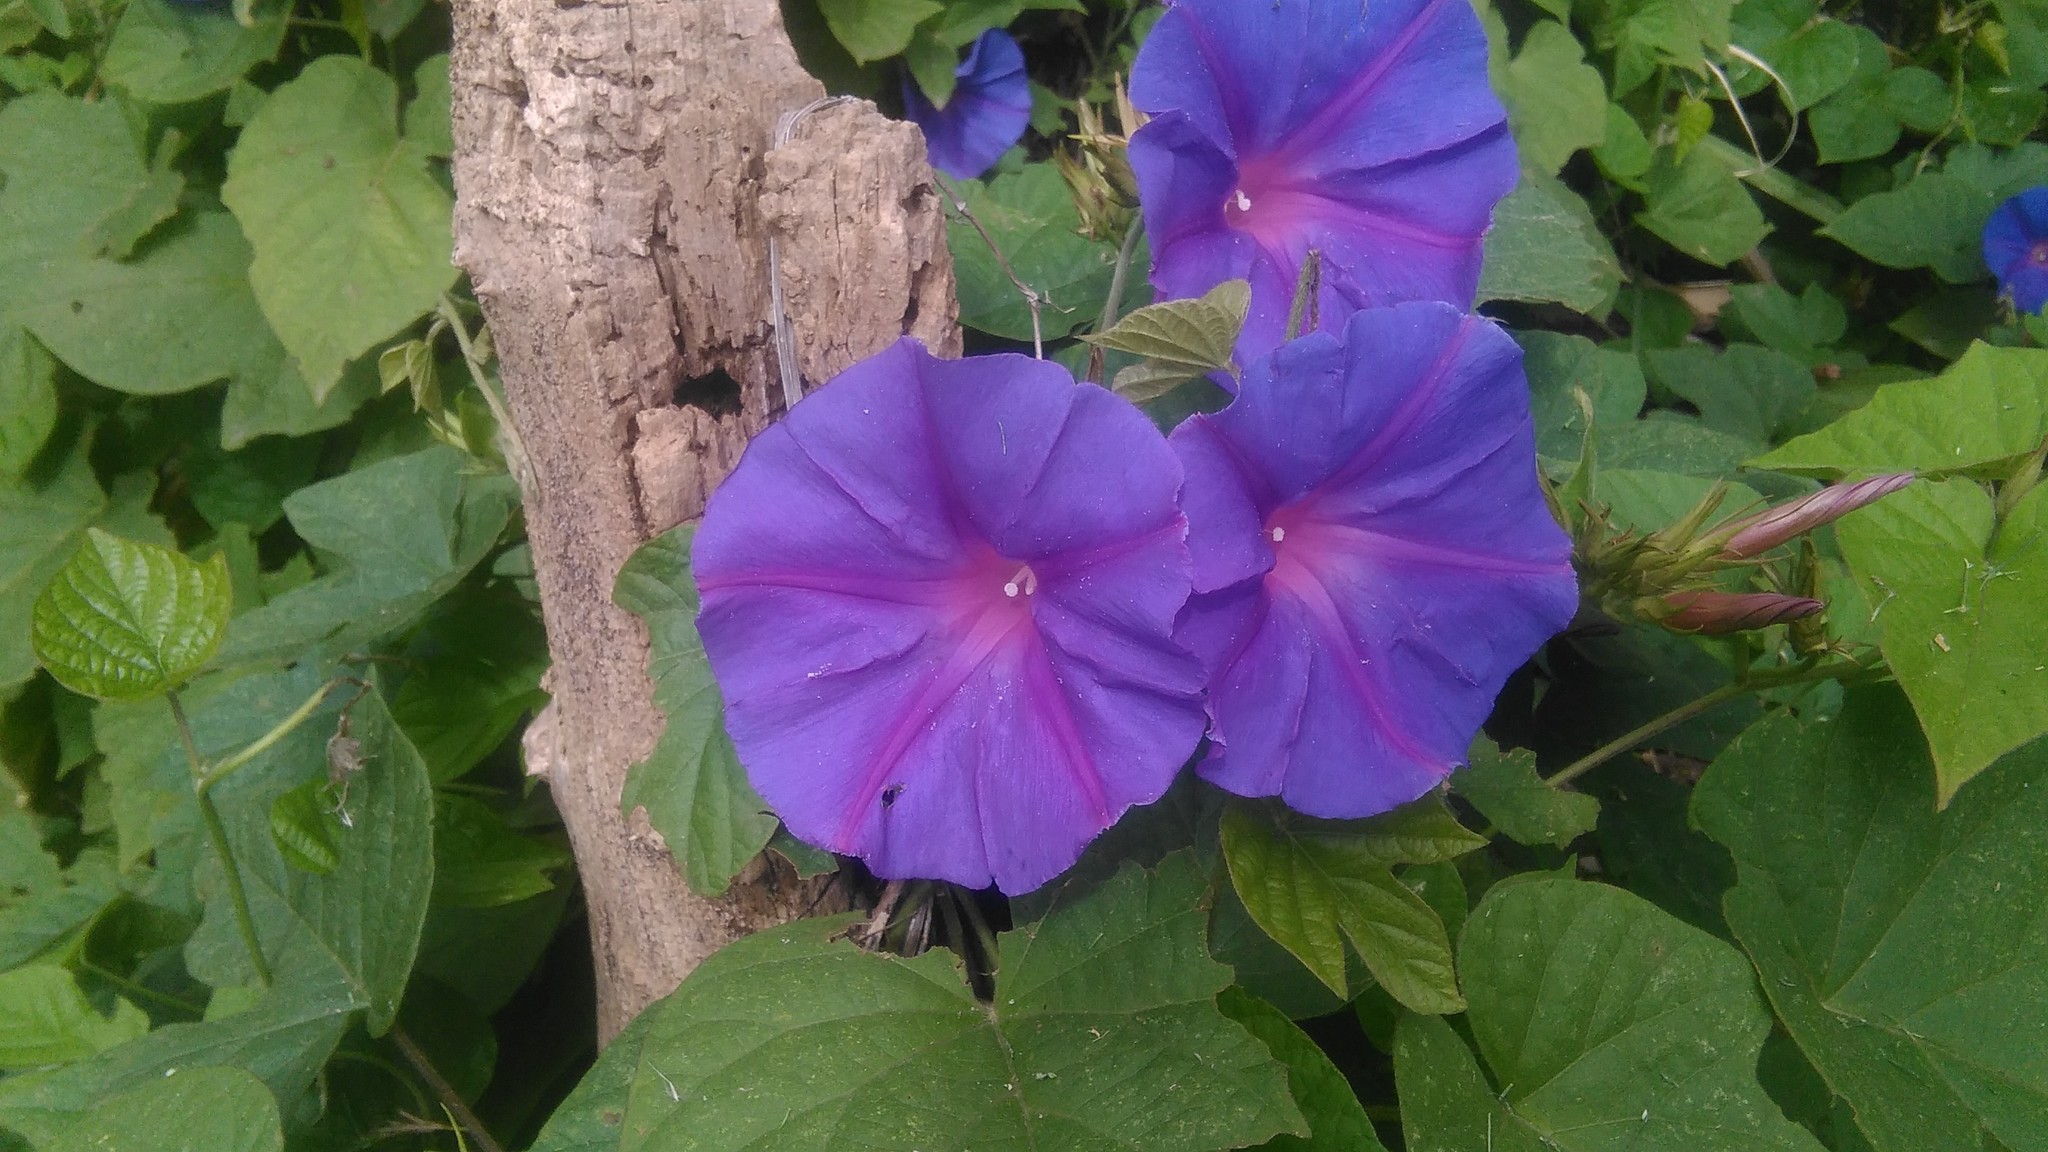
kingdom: Plantae
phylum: Tracheophyta
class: Magnoliopsida
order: Solanales
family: Convolvulaceae
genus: Ipomoea
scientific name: Ipomoea indica
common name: Blue dawnflower
